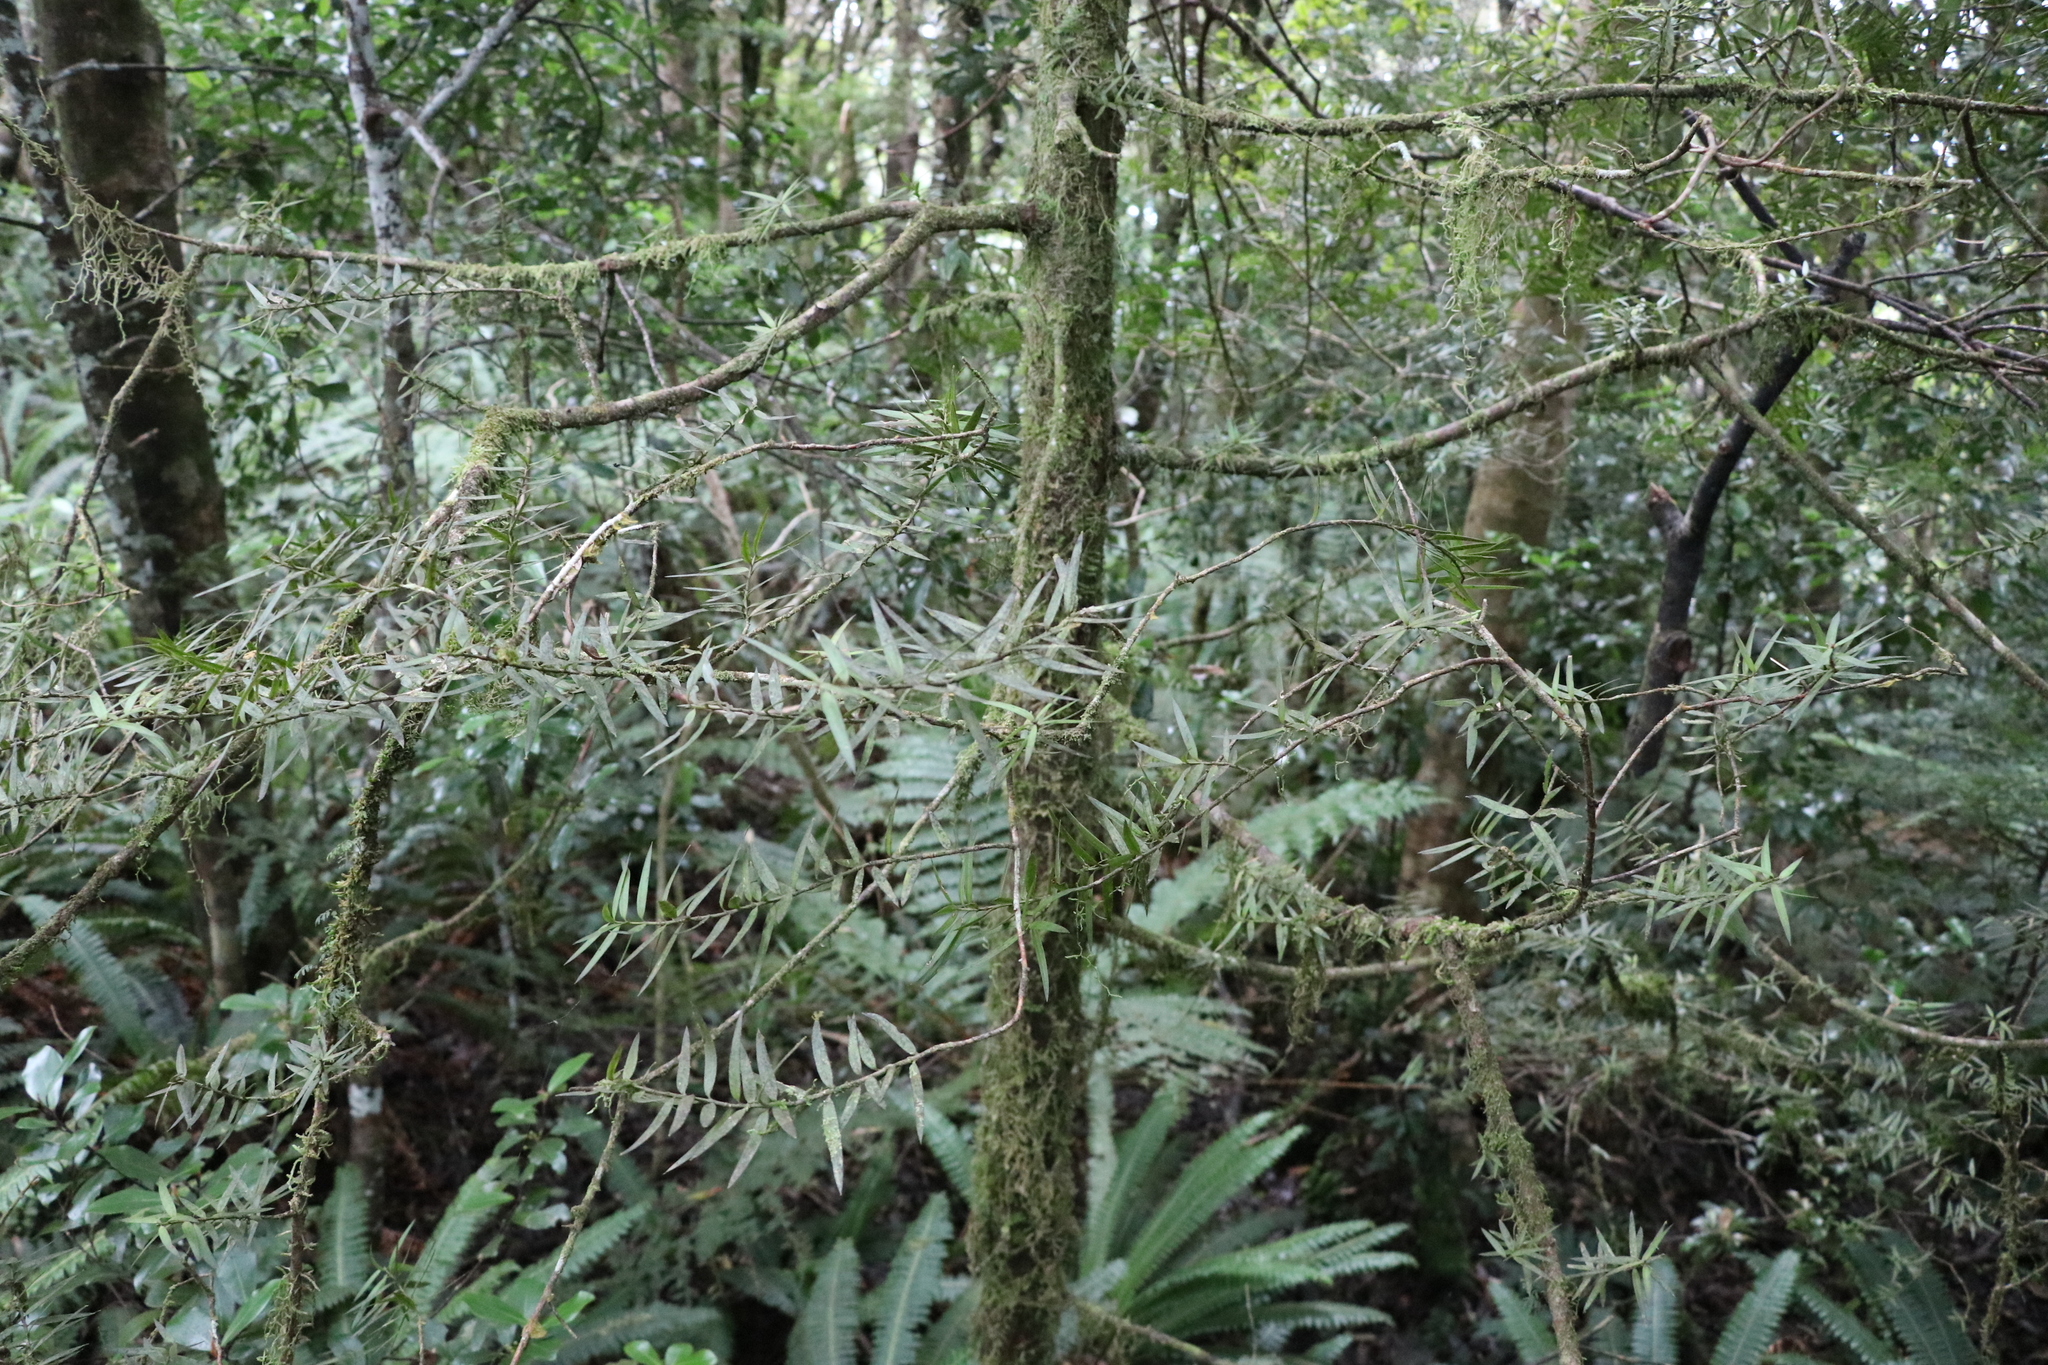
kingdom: Plantae
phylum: Tracheophyta
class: Pinopsida
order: Pinales
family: Podocarpaceae
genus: Podocarpus
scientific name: Podocarpus laetus
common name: Hall's totara
